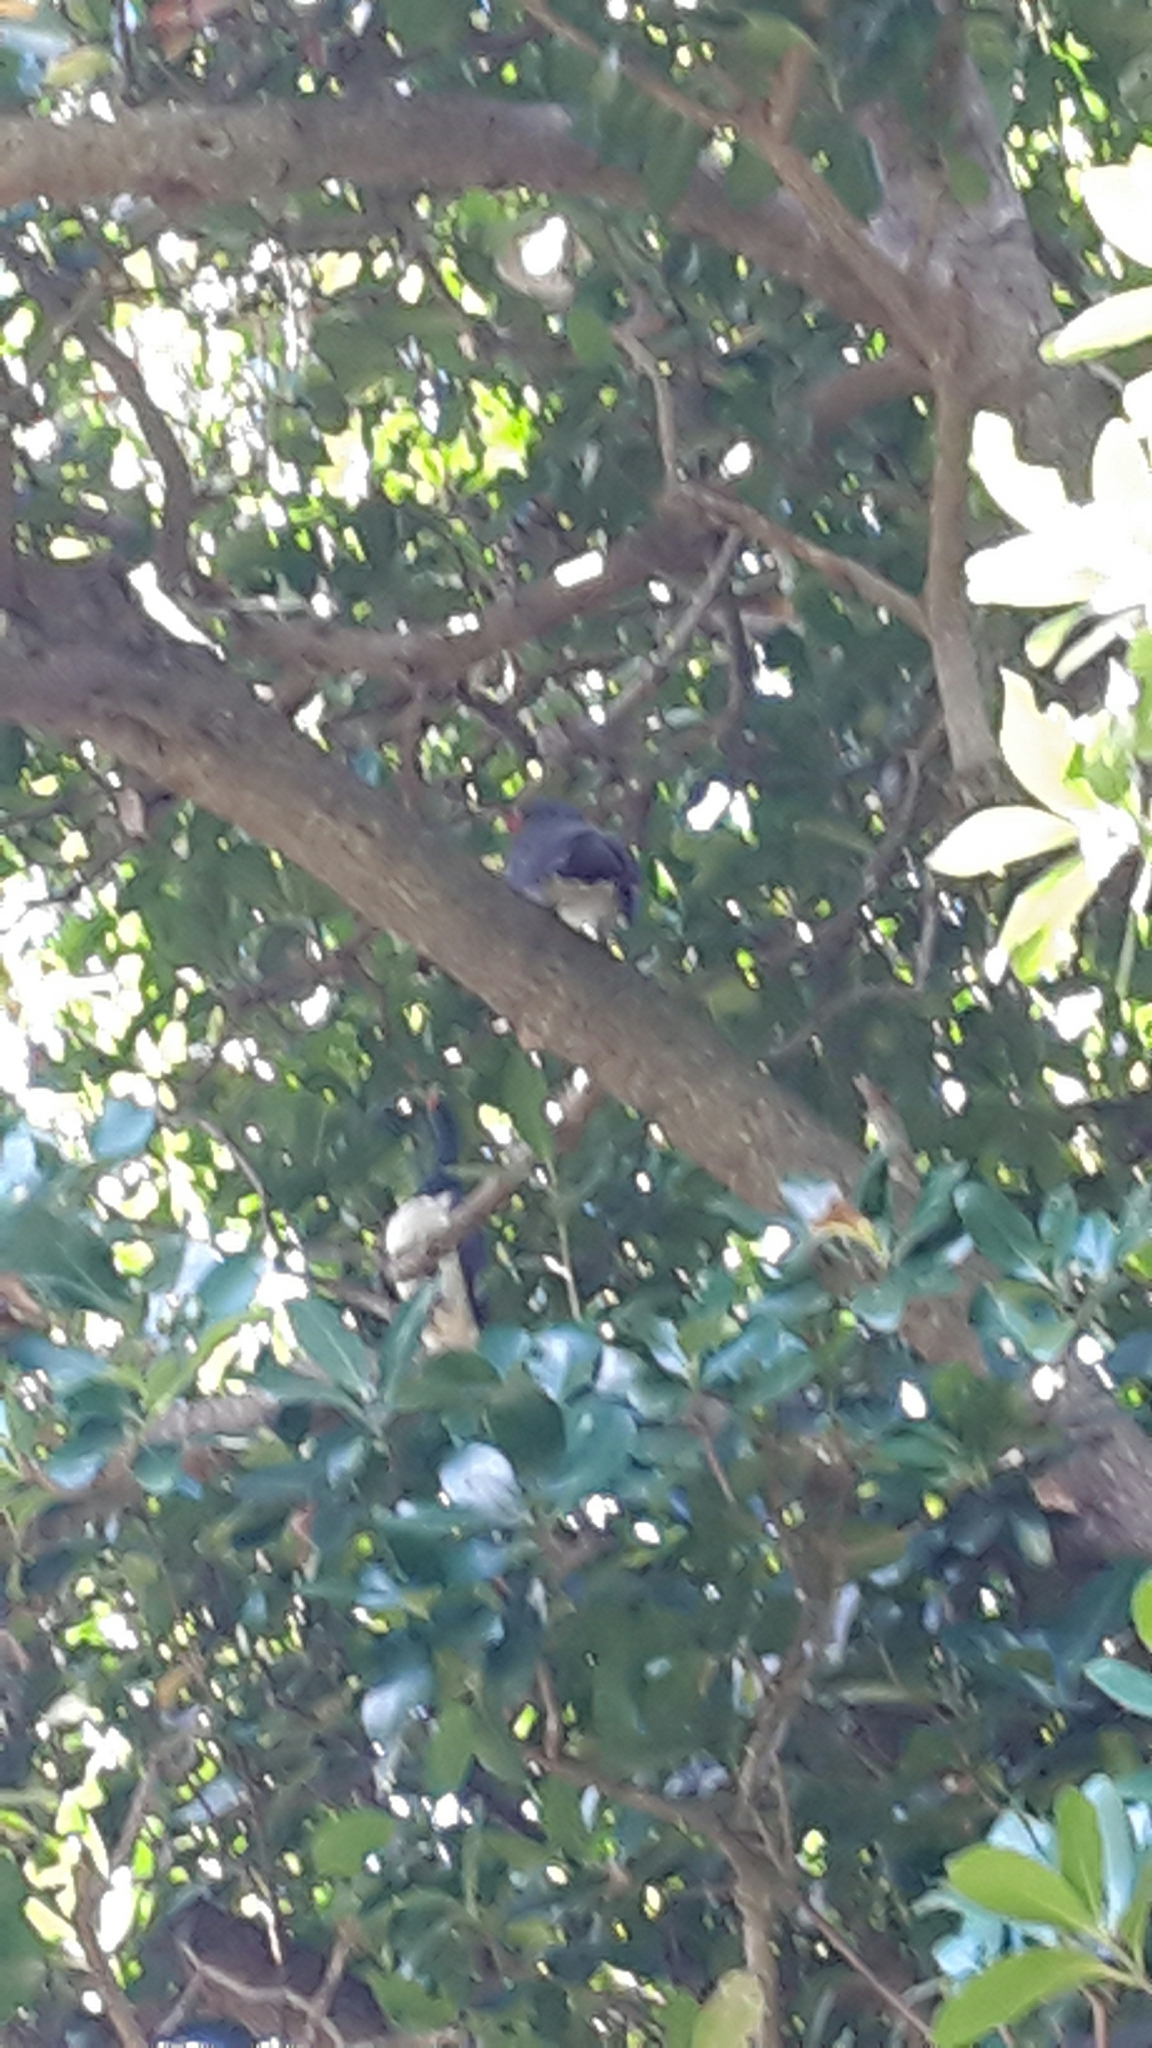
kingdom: Animalia
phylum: Chordata
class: Aves
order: Columbiformes
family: Columbidae
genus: Hemiphaga
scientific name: Hemiphaga novaeseelandiae
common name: New zealand pigeon
